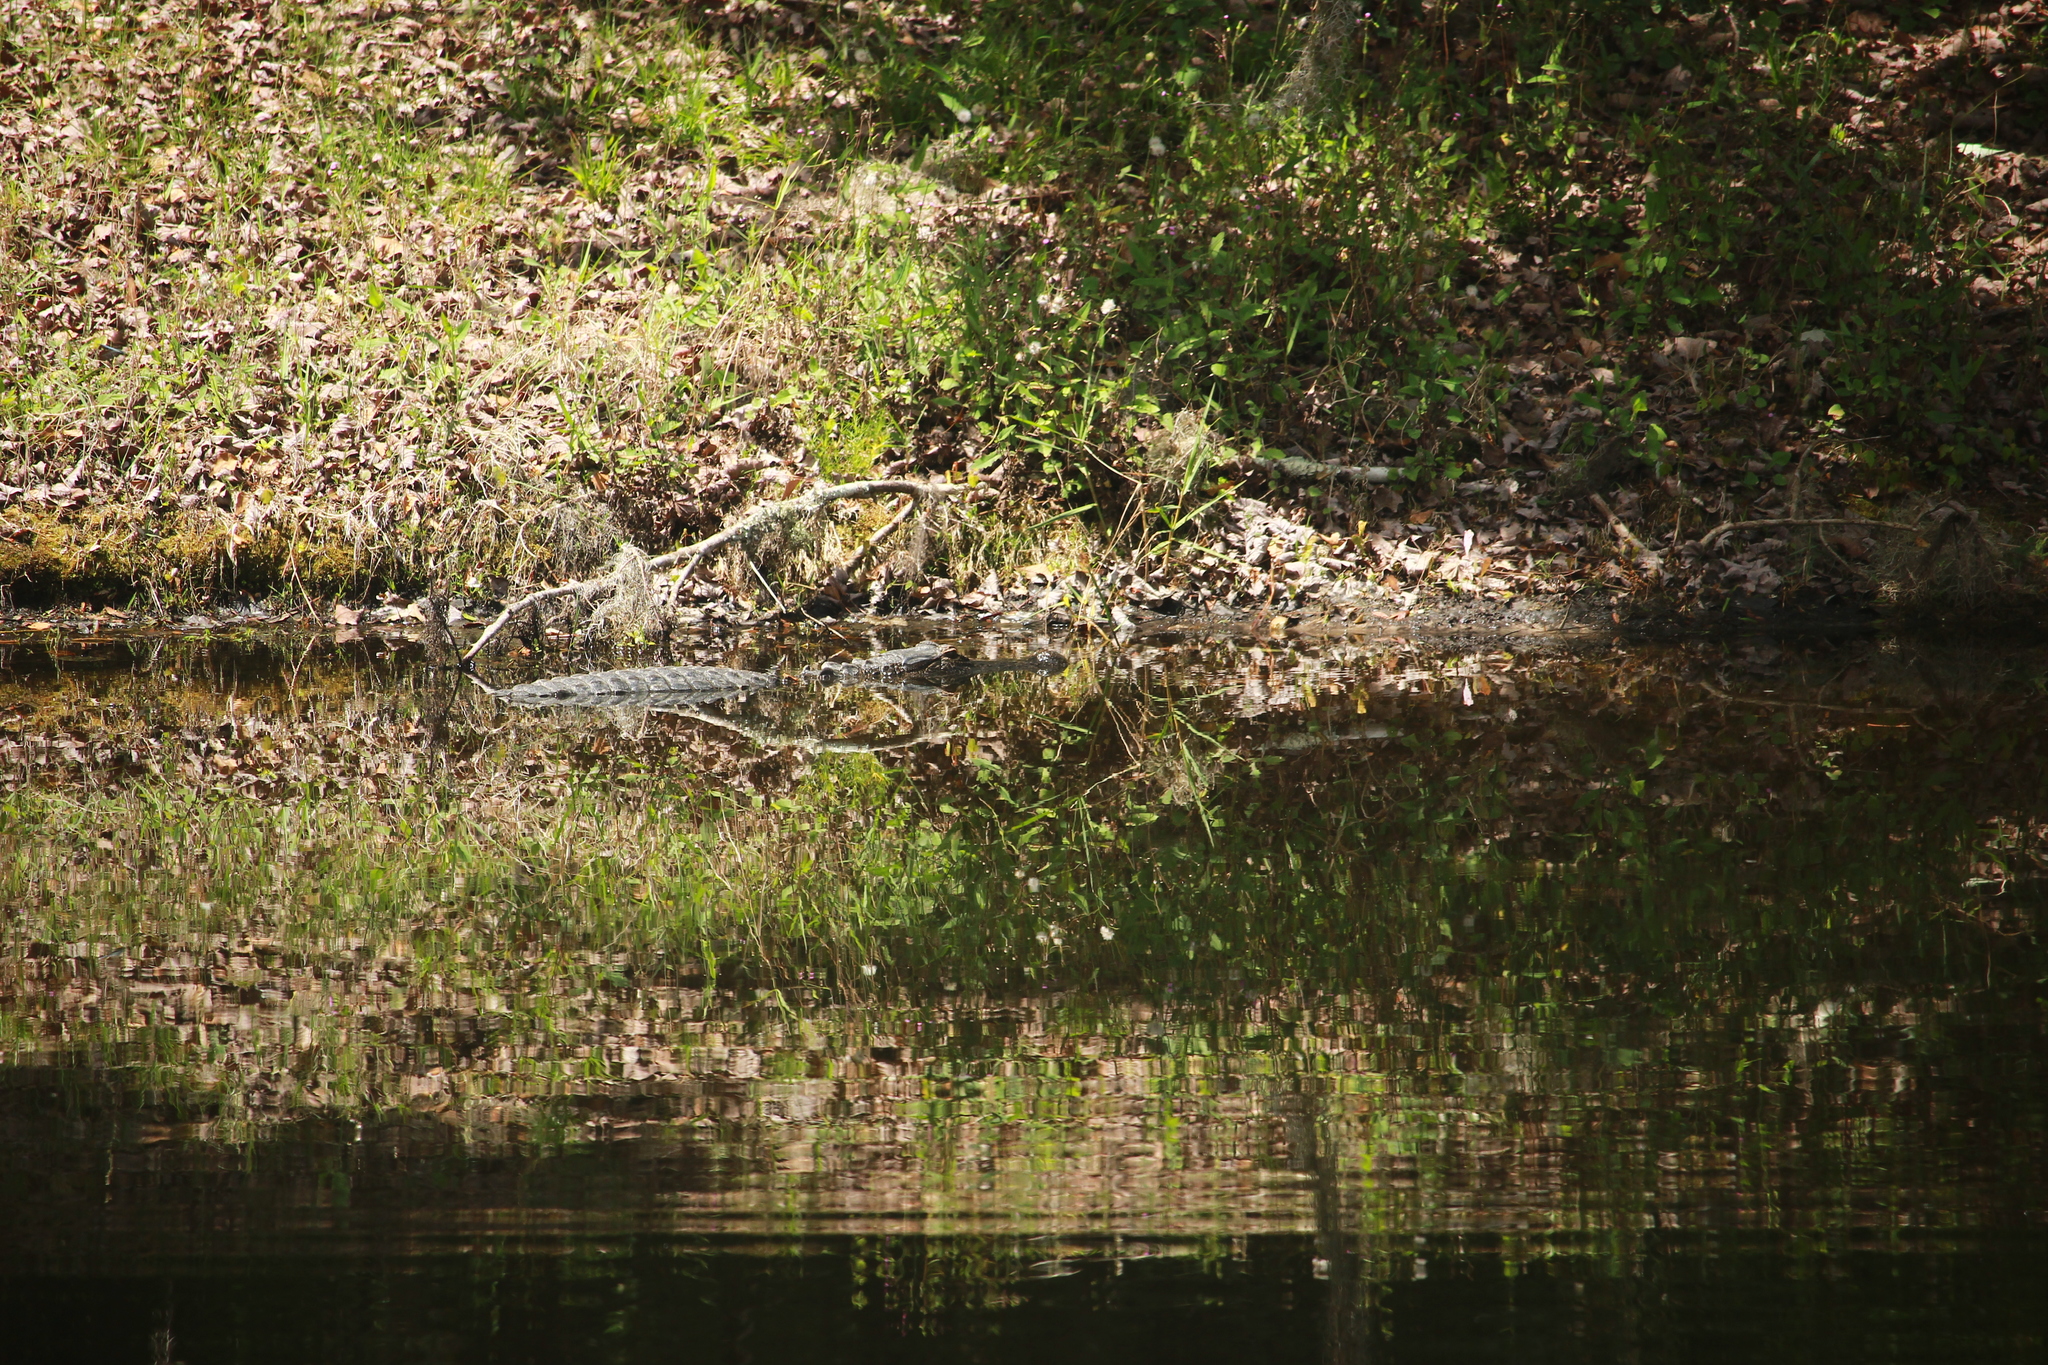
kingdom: Animalia
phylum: Chordata
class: Crocodylia
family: Alligatoridae
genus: Alligator
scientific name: Alligator mississippiensis
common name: American alligator
